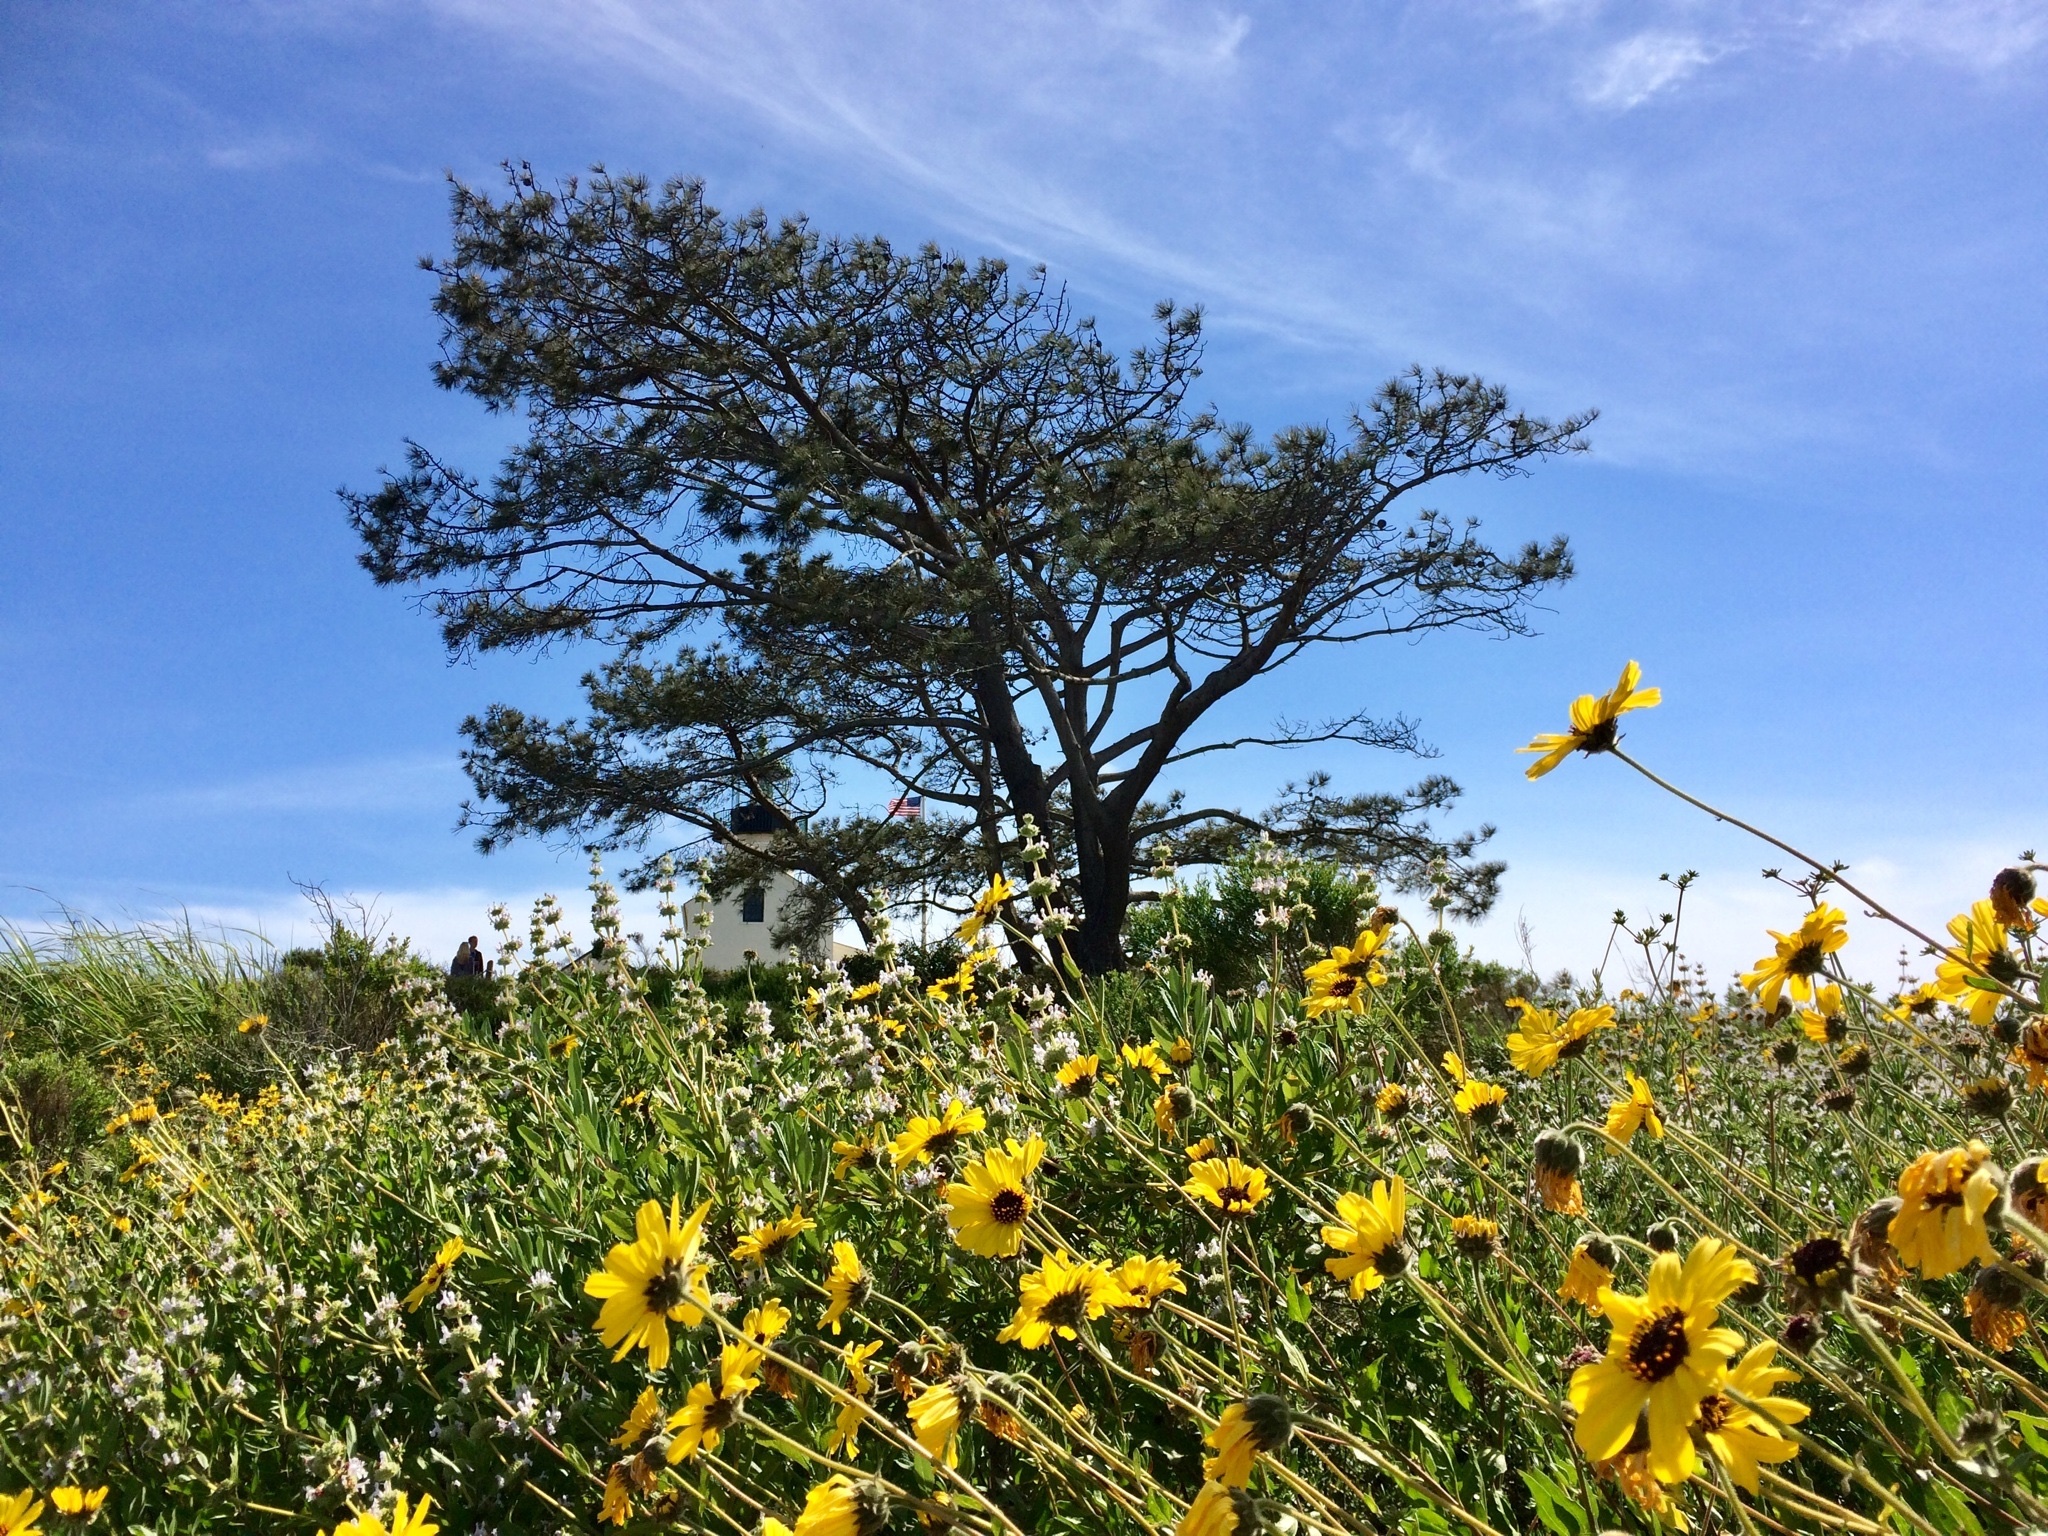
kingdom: Plantae
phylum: Tracheophyta
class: Magnoliopsida
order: Asterales
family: Asteraceae
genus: Encelia
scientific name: Encelia californica
